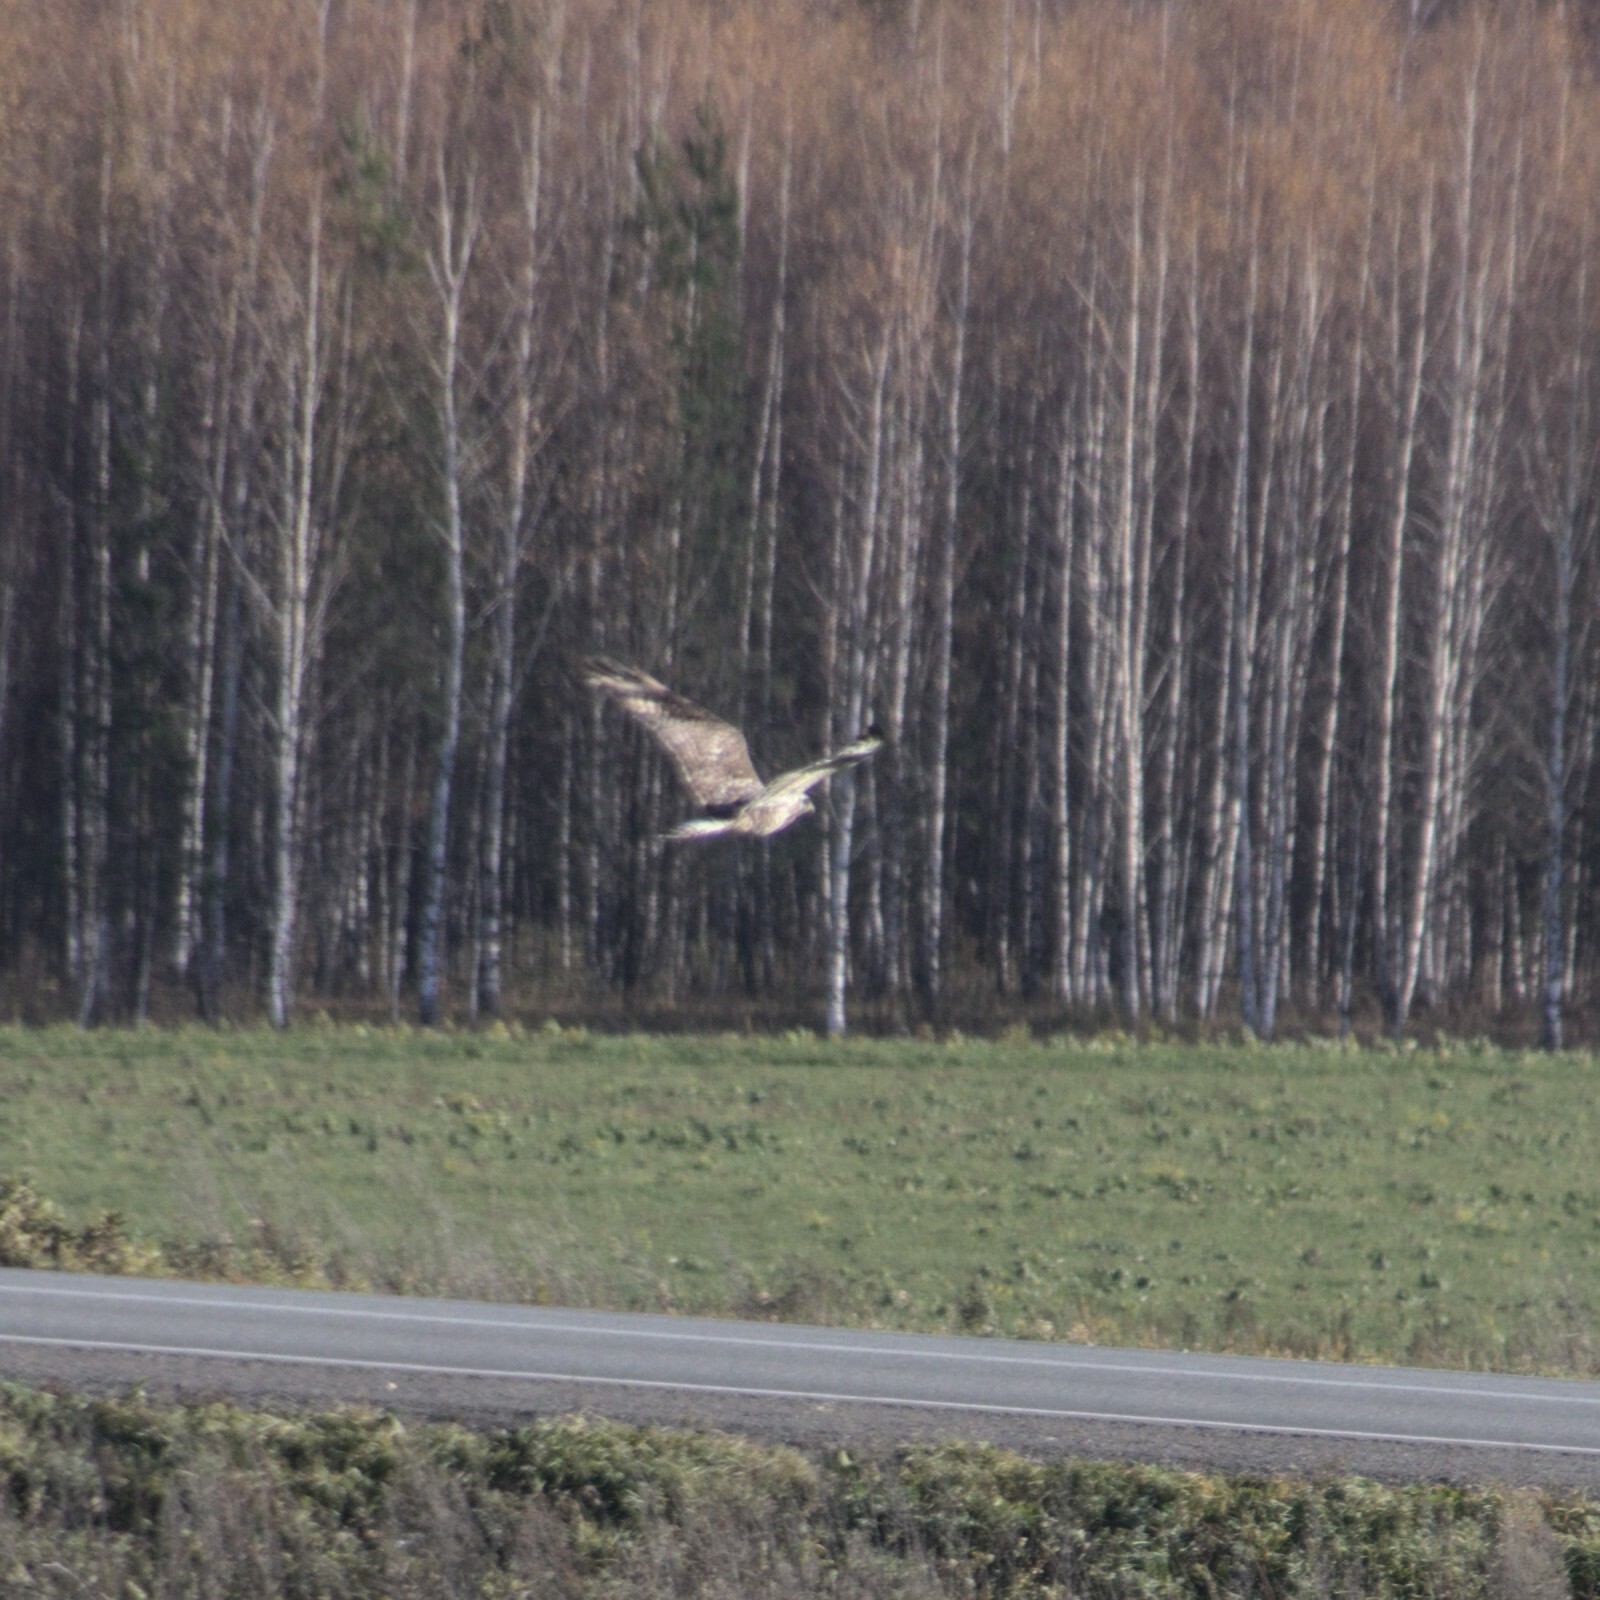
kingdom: Animalia
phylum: Chordata
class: Aves
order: Accipitriformes
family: Accipitridae
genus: Buteo
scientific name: Buteo lagopus
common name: Rough-legged buzzard
